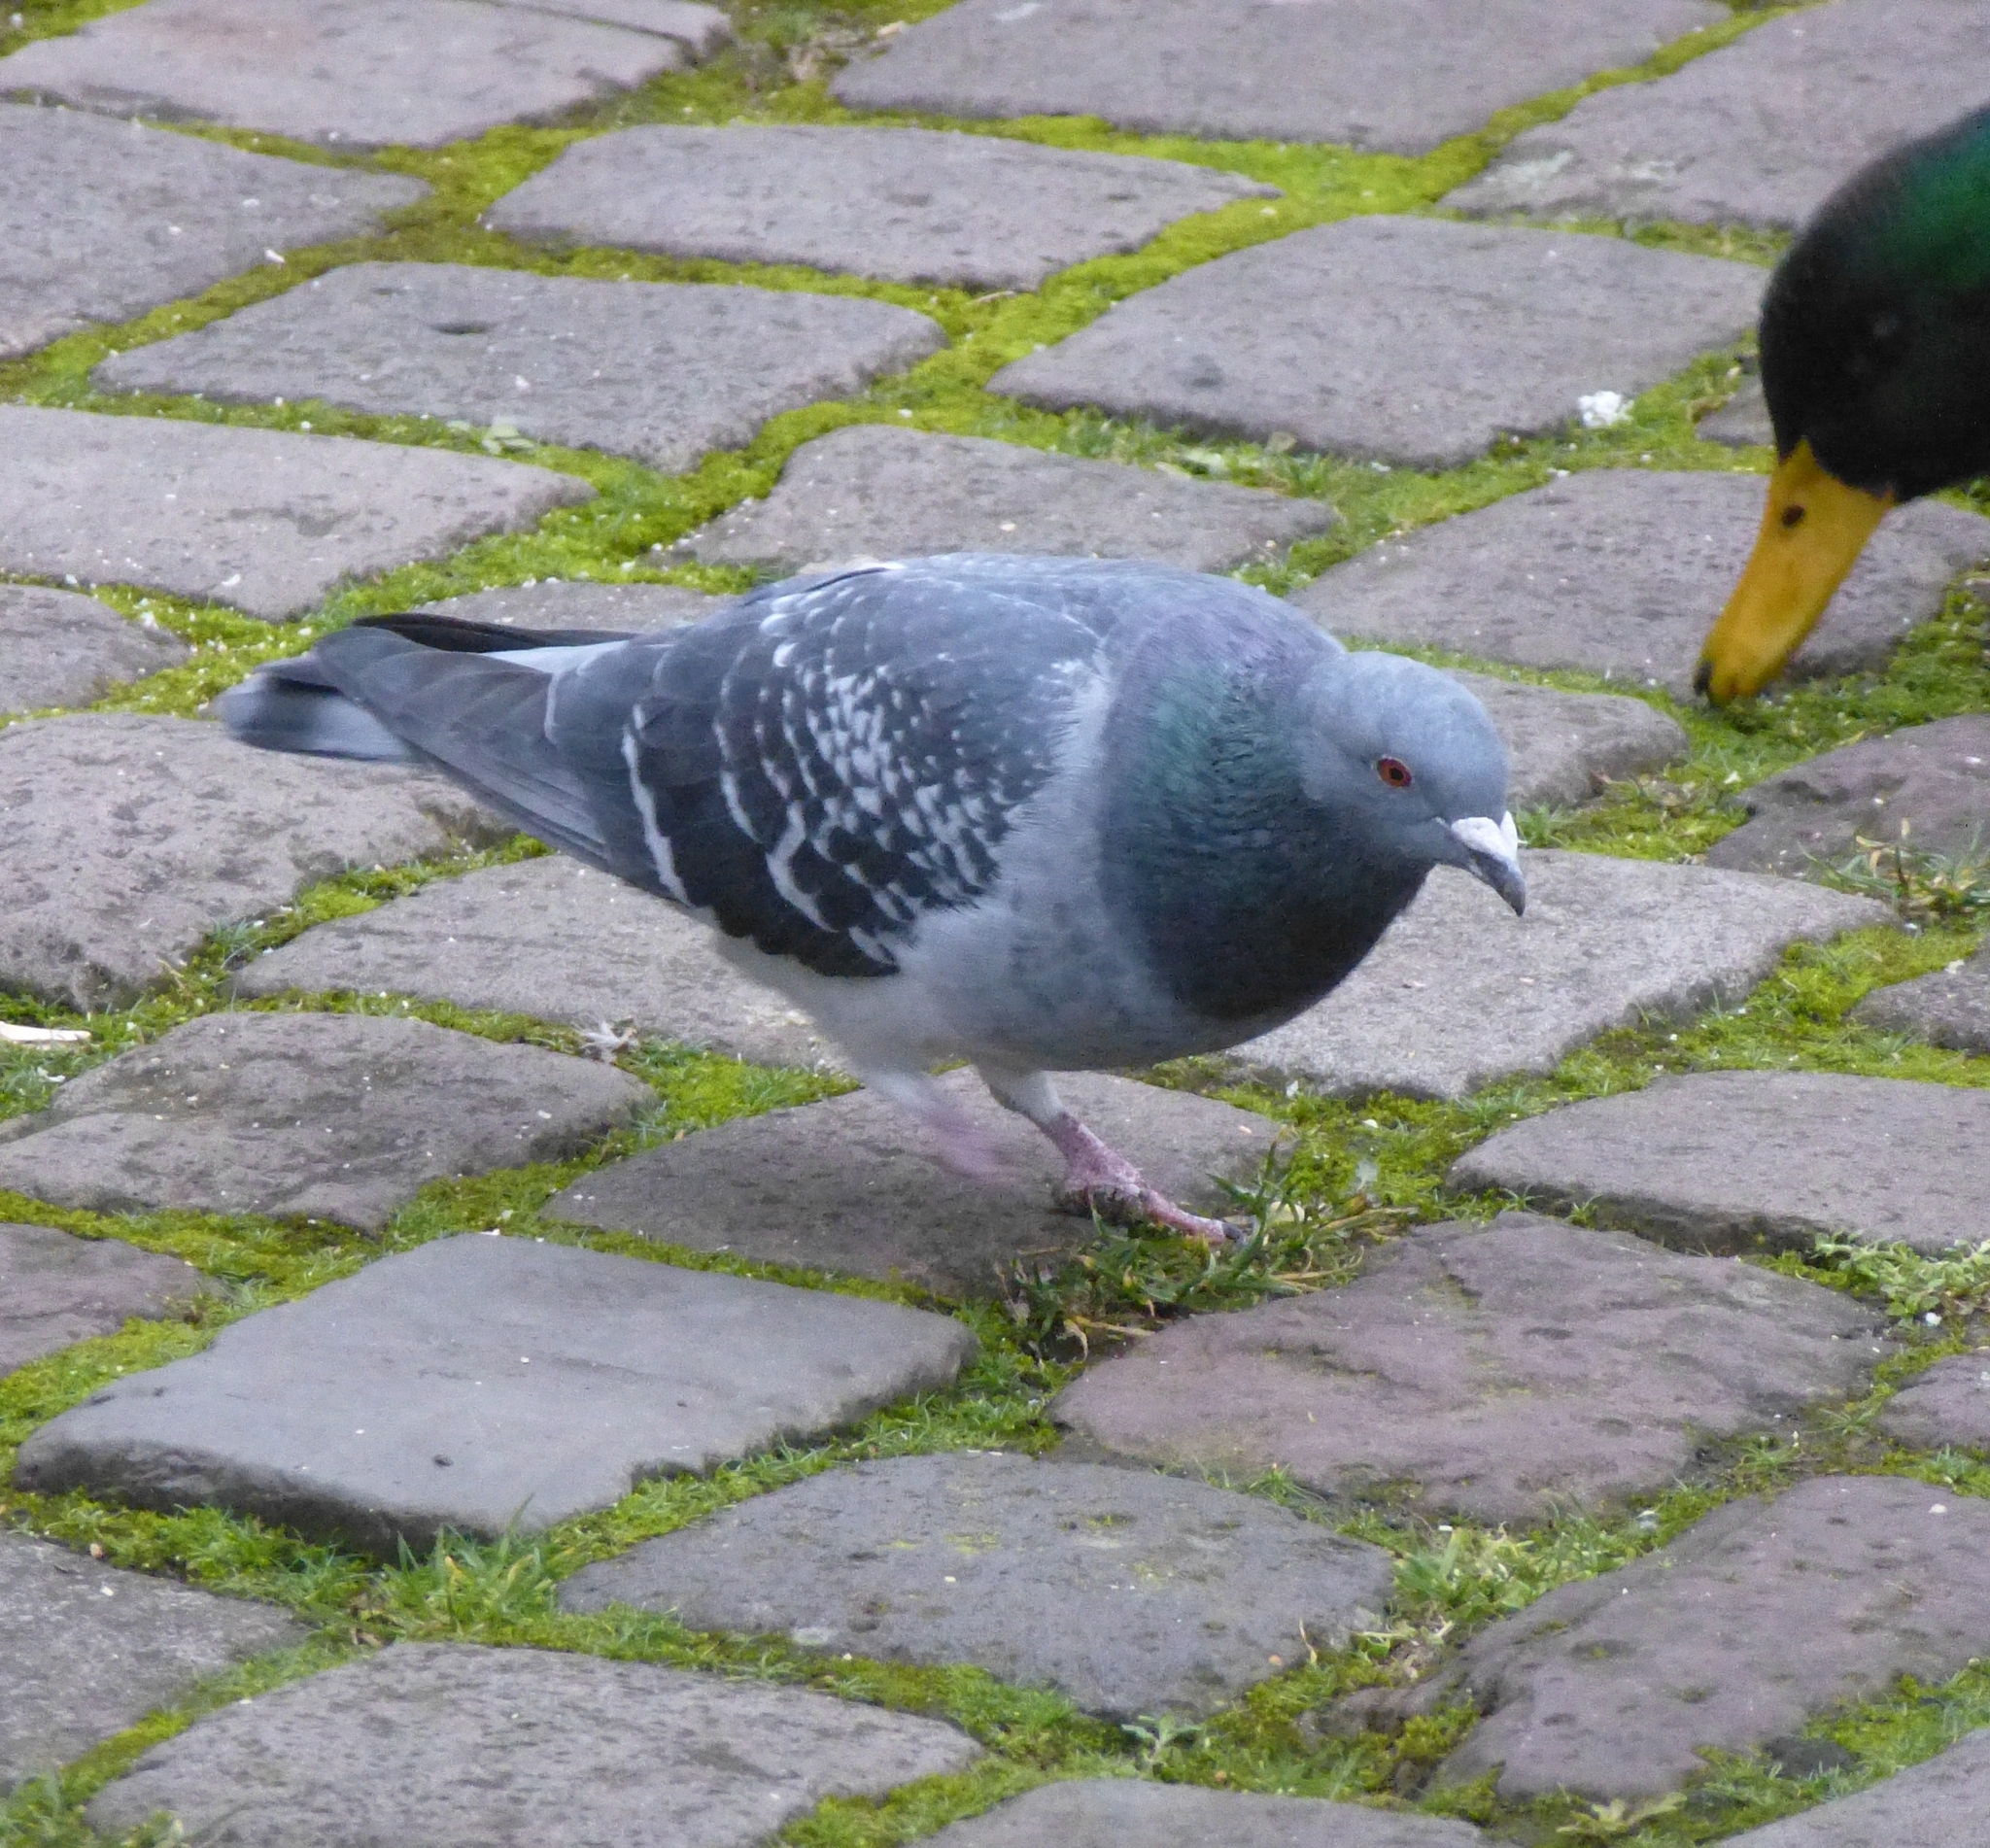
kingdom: Animalia
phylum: Chordata
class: Aves
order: Columbiformes
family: Columbidae
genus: Columba
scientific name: Columba livia
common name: Rock pigeon
